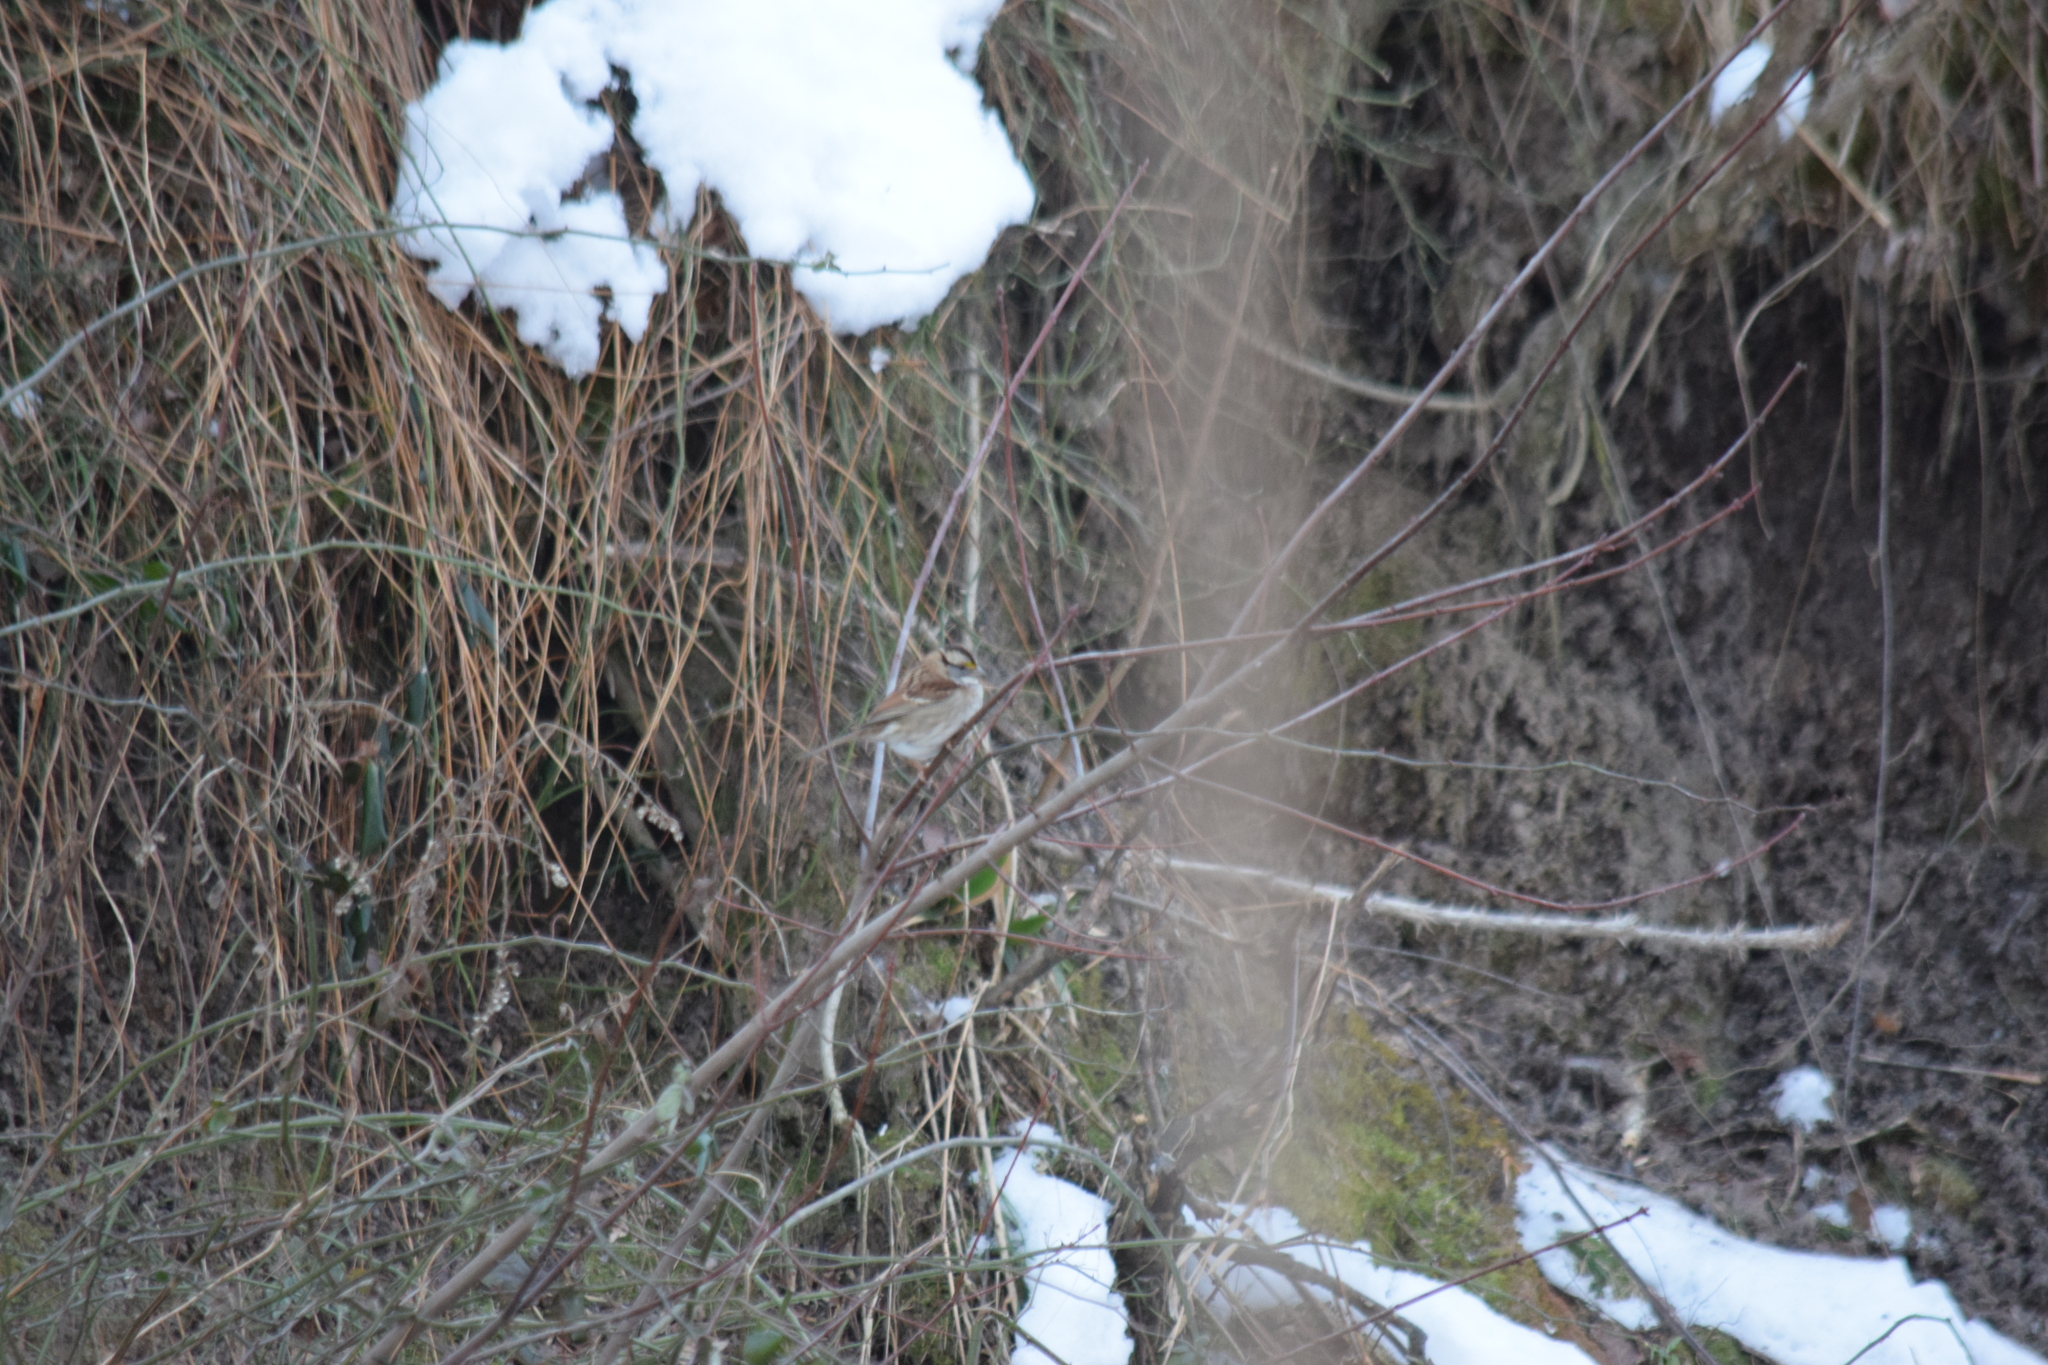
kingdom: Animalia
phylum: Chordata
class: Aves
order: Passeriformes
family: Passerellidae
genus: Zonotrichia
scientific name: Zonotrichia albicollis
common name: White-throated sparrow
